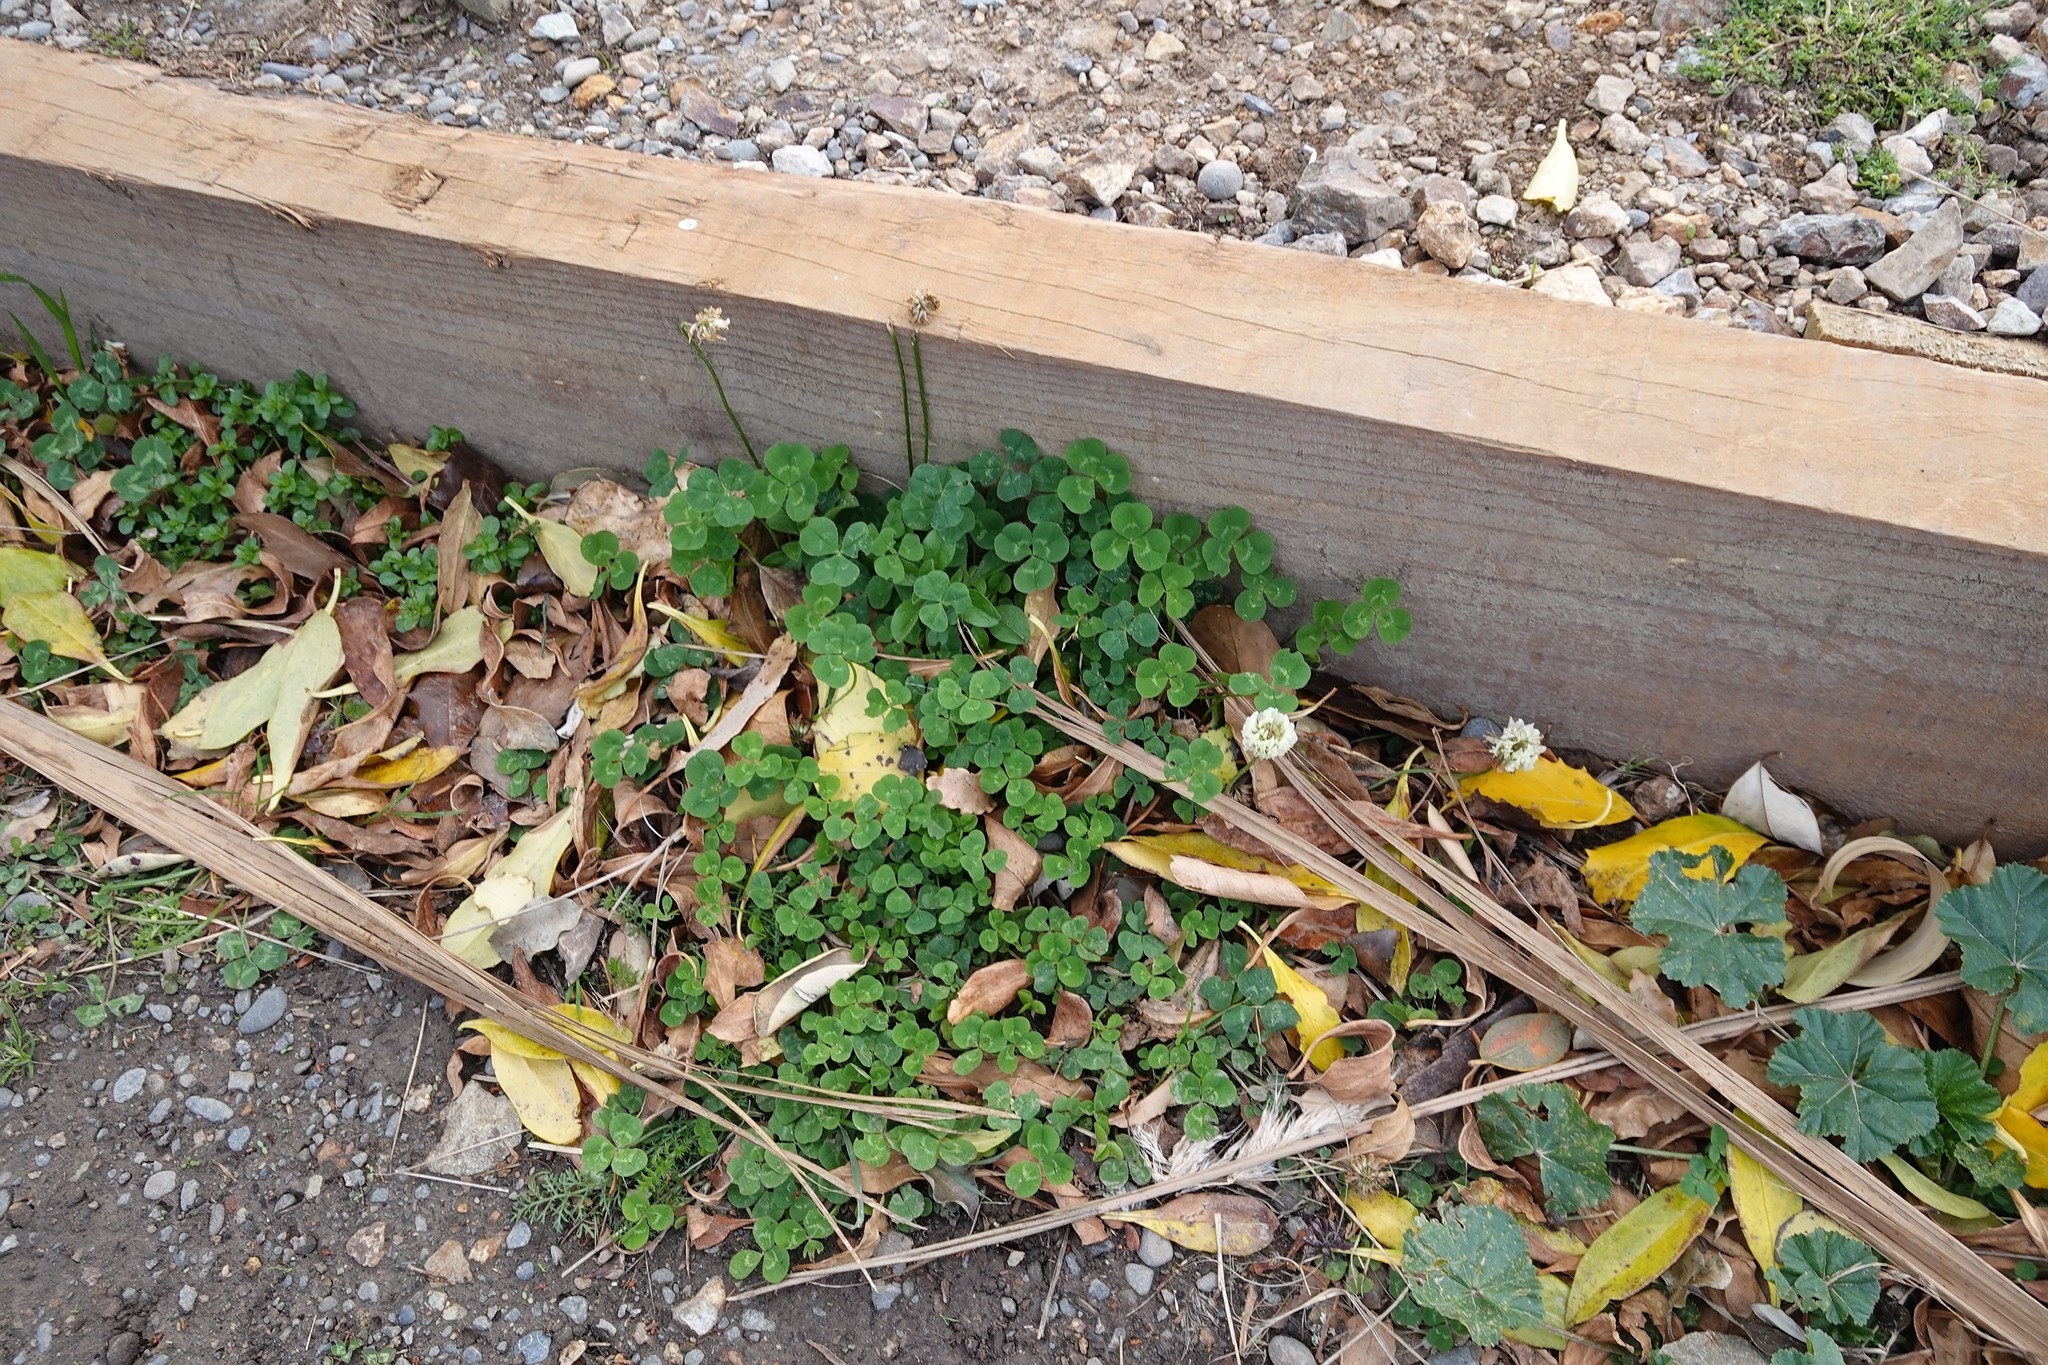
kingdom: Plantae
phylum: Tracheophyta
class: Magnoliopsida
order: Fabales
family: Fabaceae
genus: Trifolium
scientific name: Trifolium repens
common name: White clover
